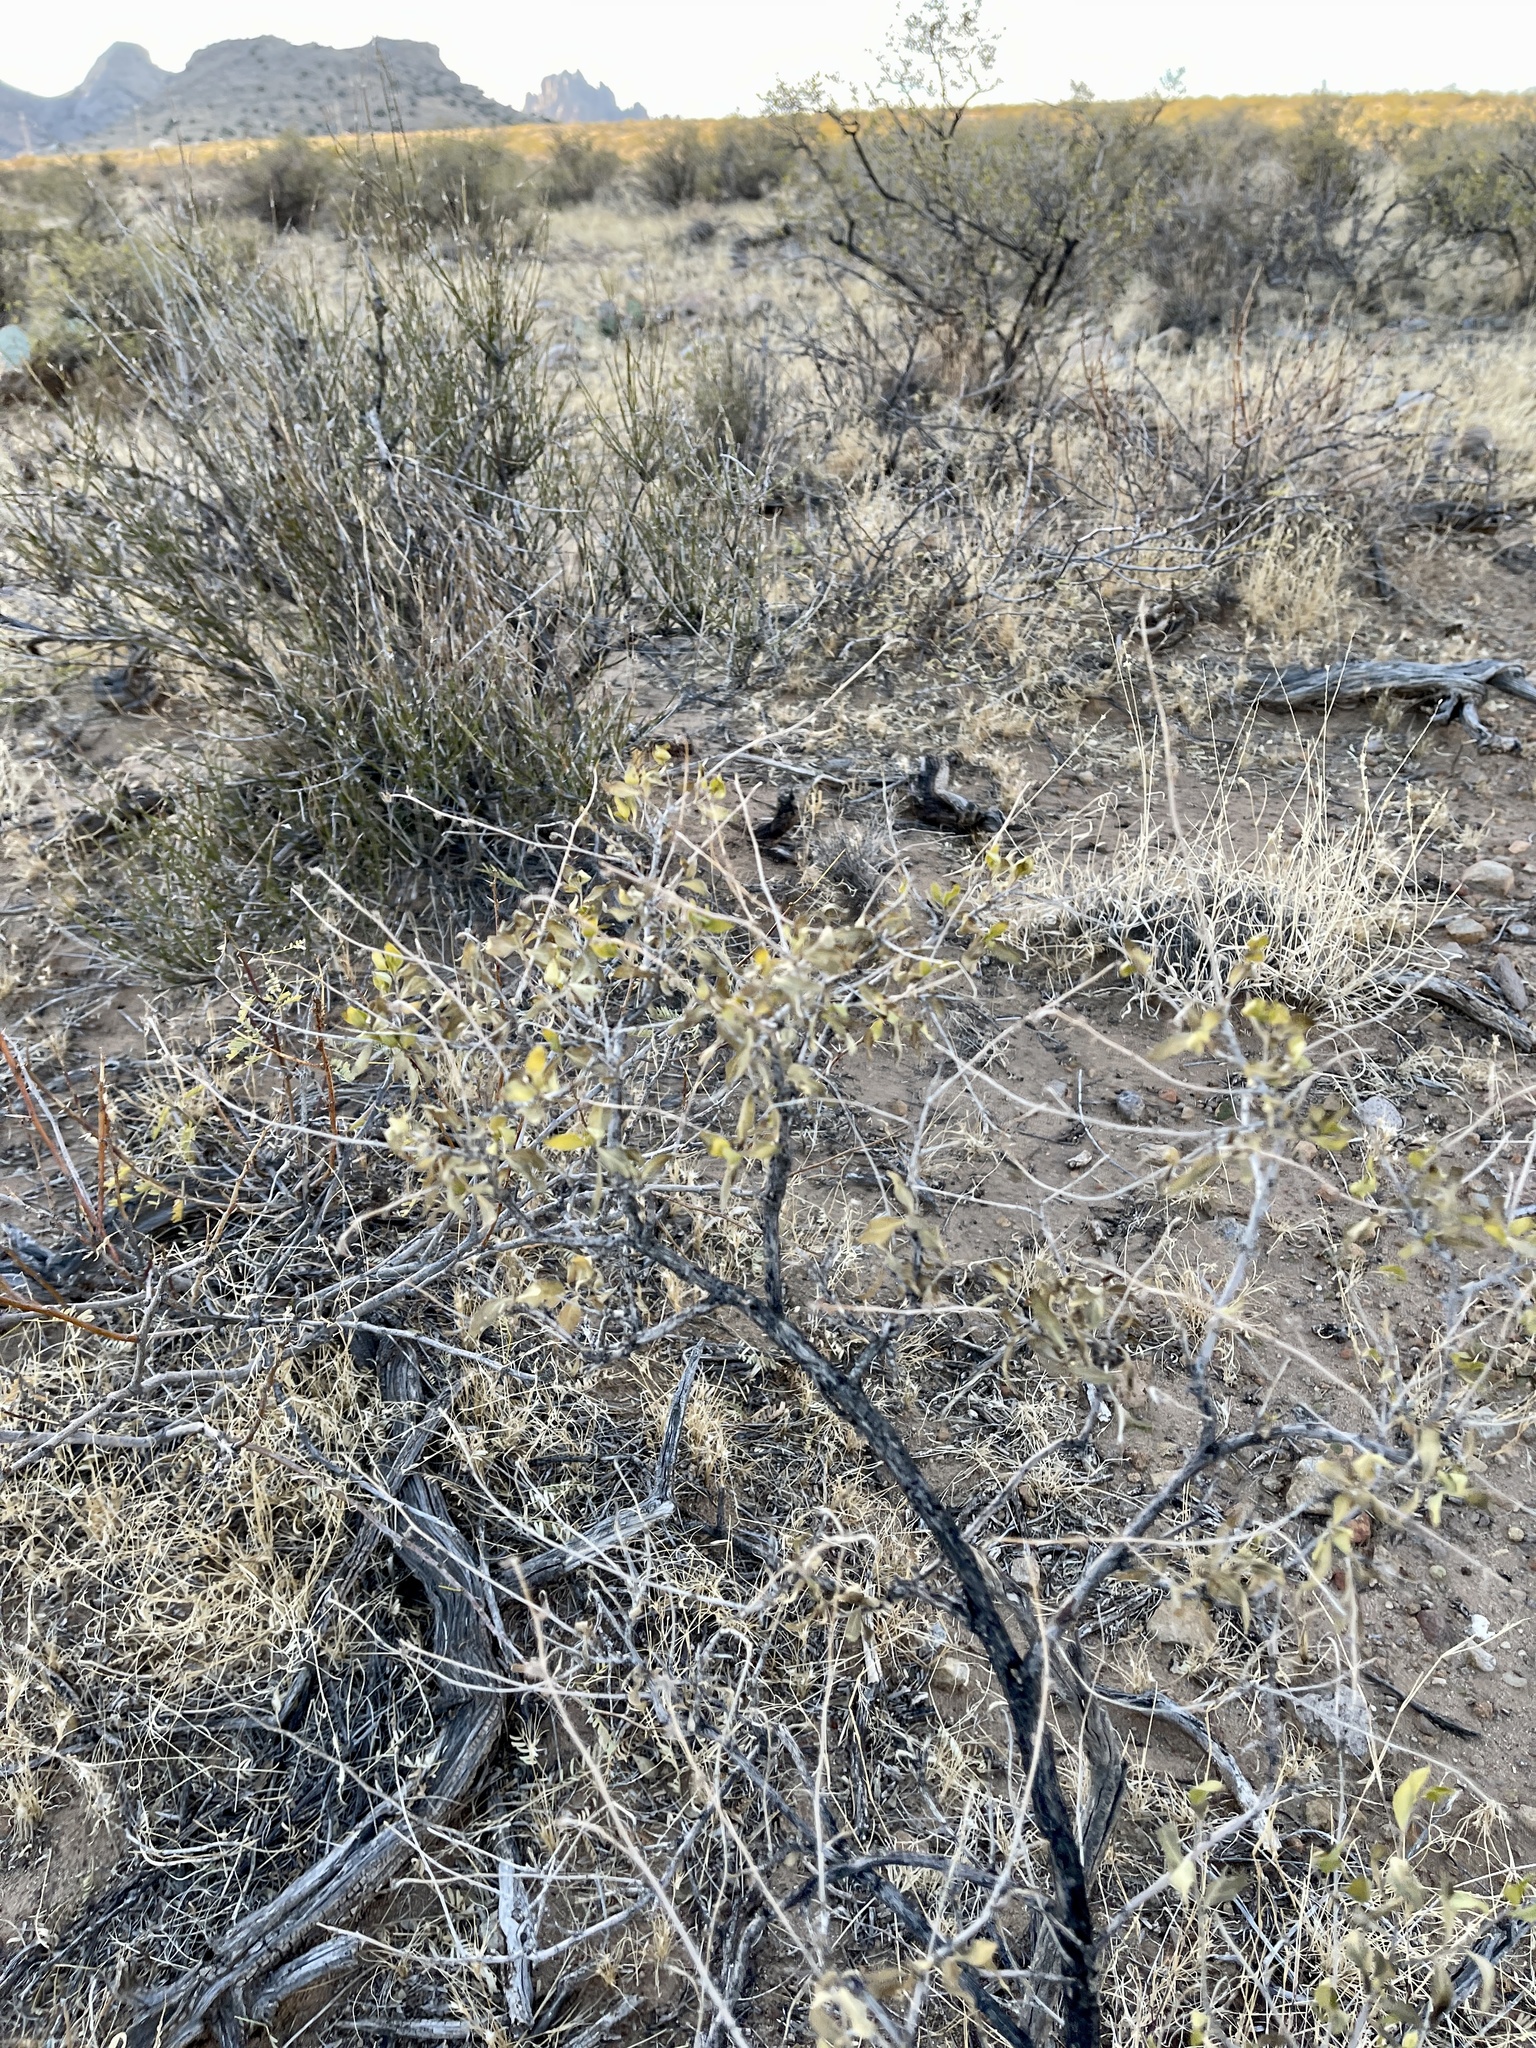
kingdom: Plantae
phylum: Tracheophyta
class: Magnoliopsida
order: Asterales
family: Asteraceae
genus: Flourensia
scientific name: Flourensia cernua
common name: Varnishbush
